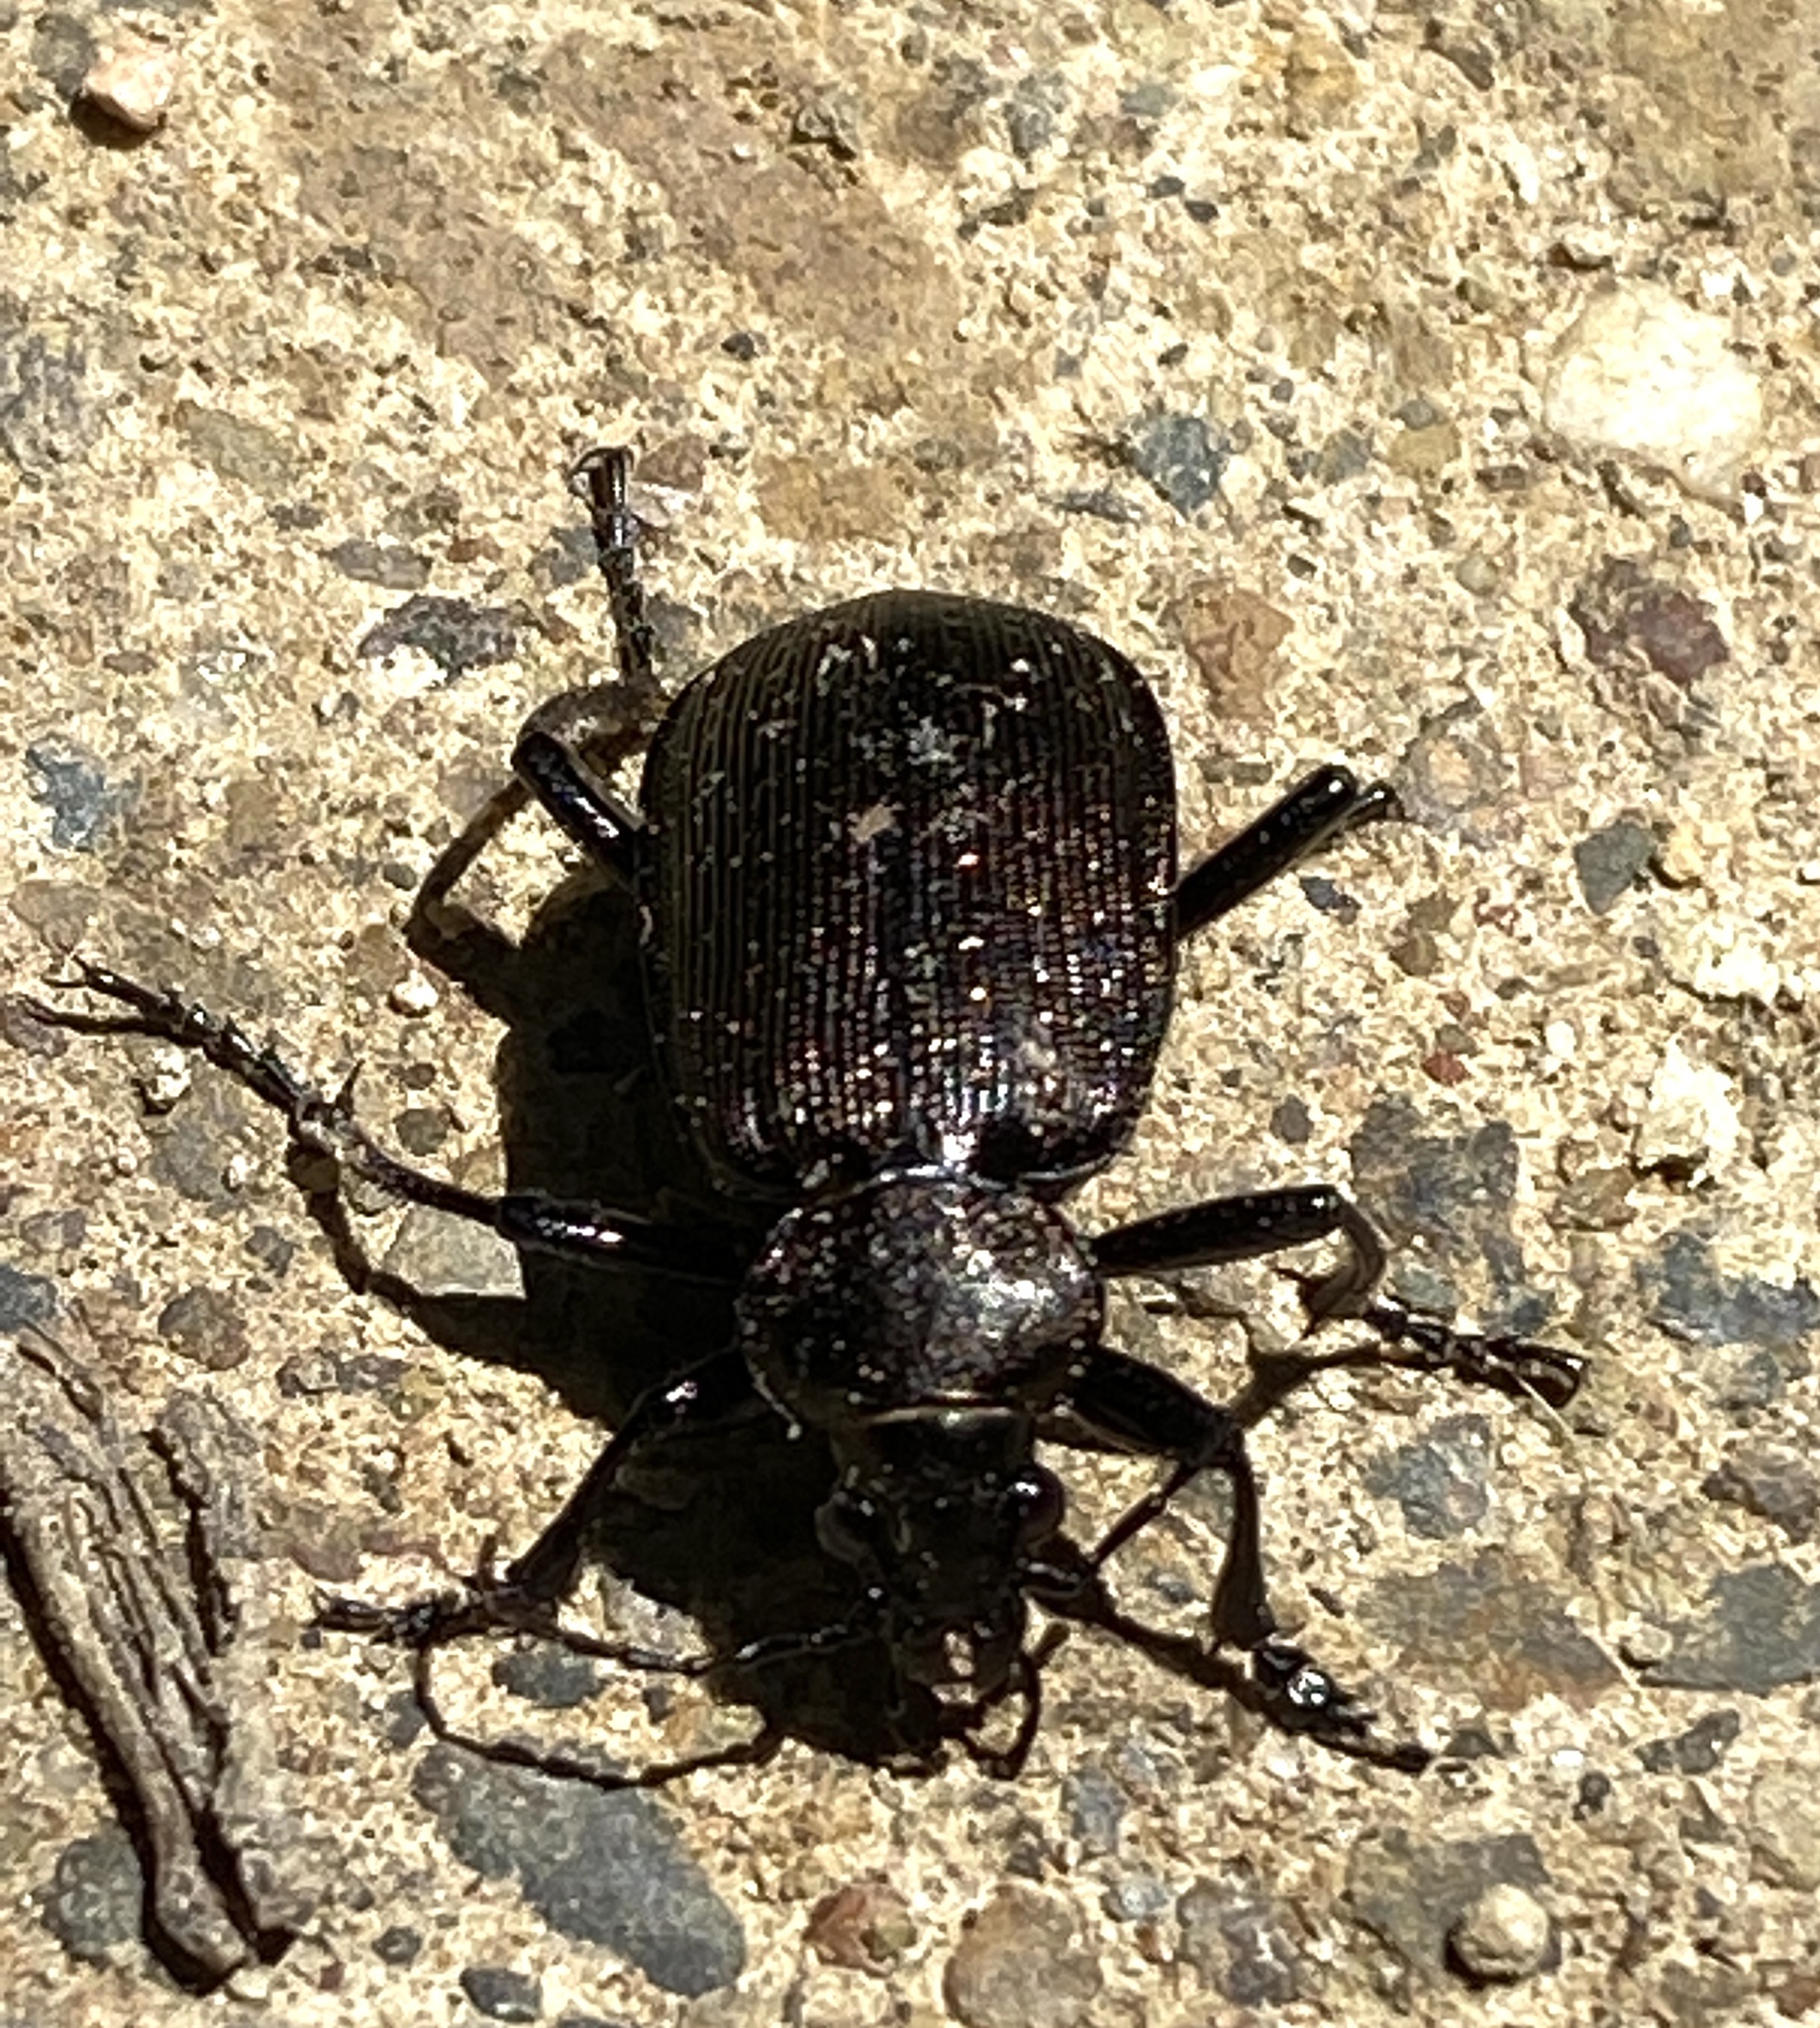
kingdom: Animalia
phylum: Arthropoda
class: Insecta
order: Coleoptera
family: Carabidae
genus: Calosoma
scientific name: Calosoma chlorostictum
